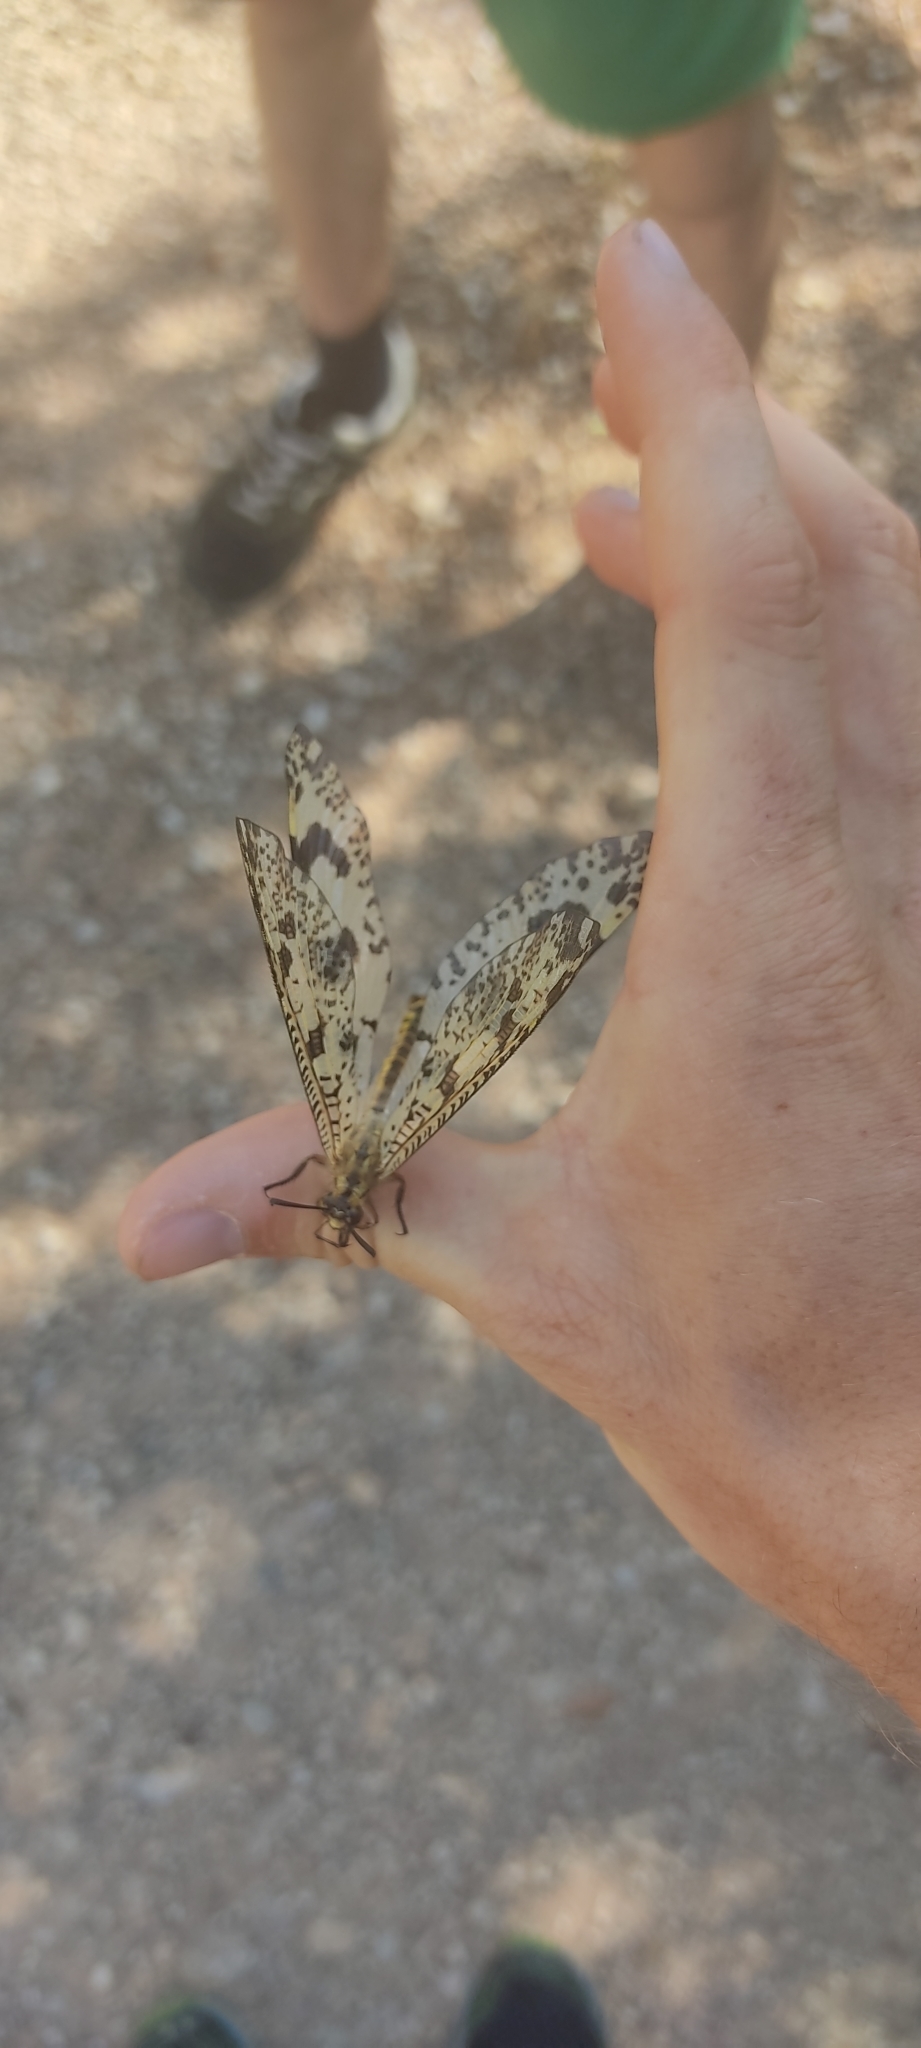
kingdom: Animalia
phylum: Arthropoda
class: Insecta
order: Neuroptera
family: Myrmeleontidae
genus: Palpares
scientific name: Palpares libelluloides
